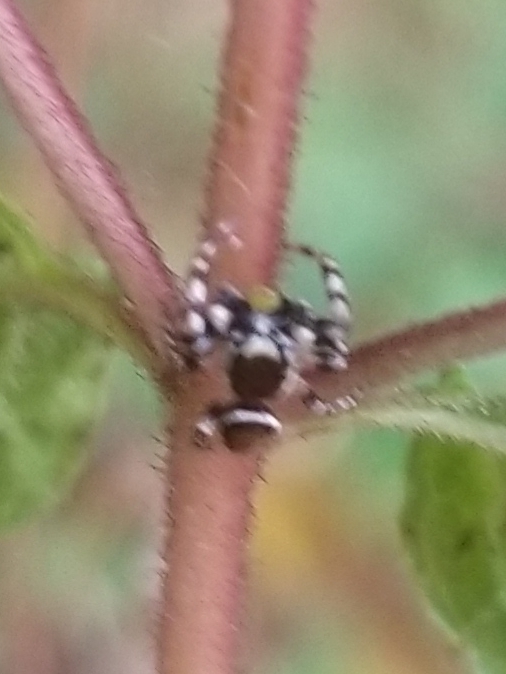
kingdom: Animalia
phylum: Arthropoda
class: Arachnida
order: Araneae
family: Salticidae
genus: Pelegrina
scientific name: Pelegrina proterva
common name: Common white-cheeked jumping spider
